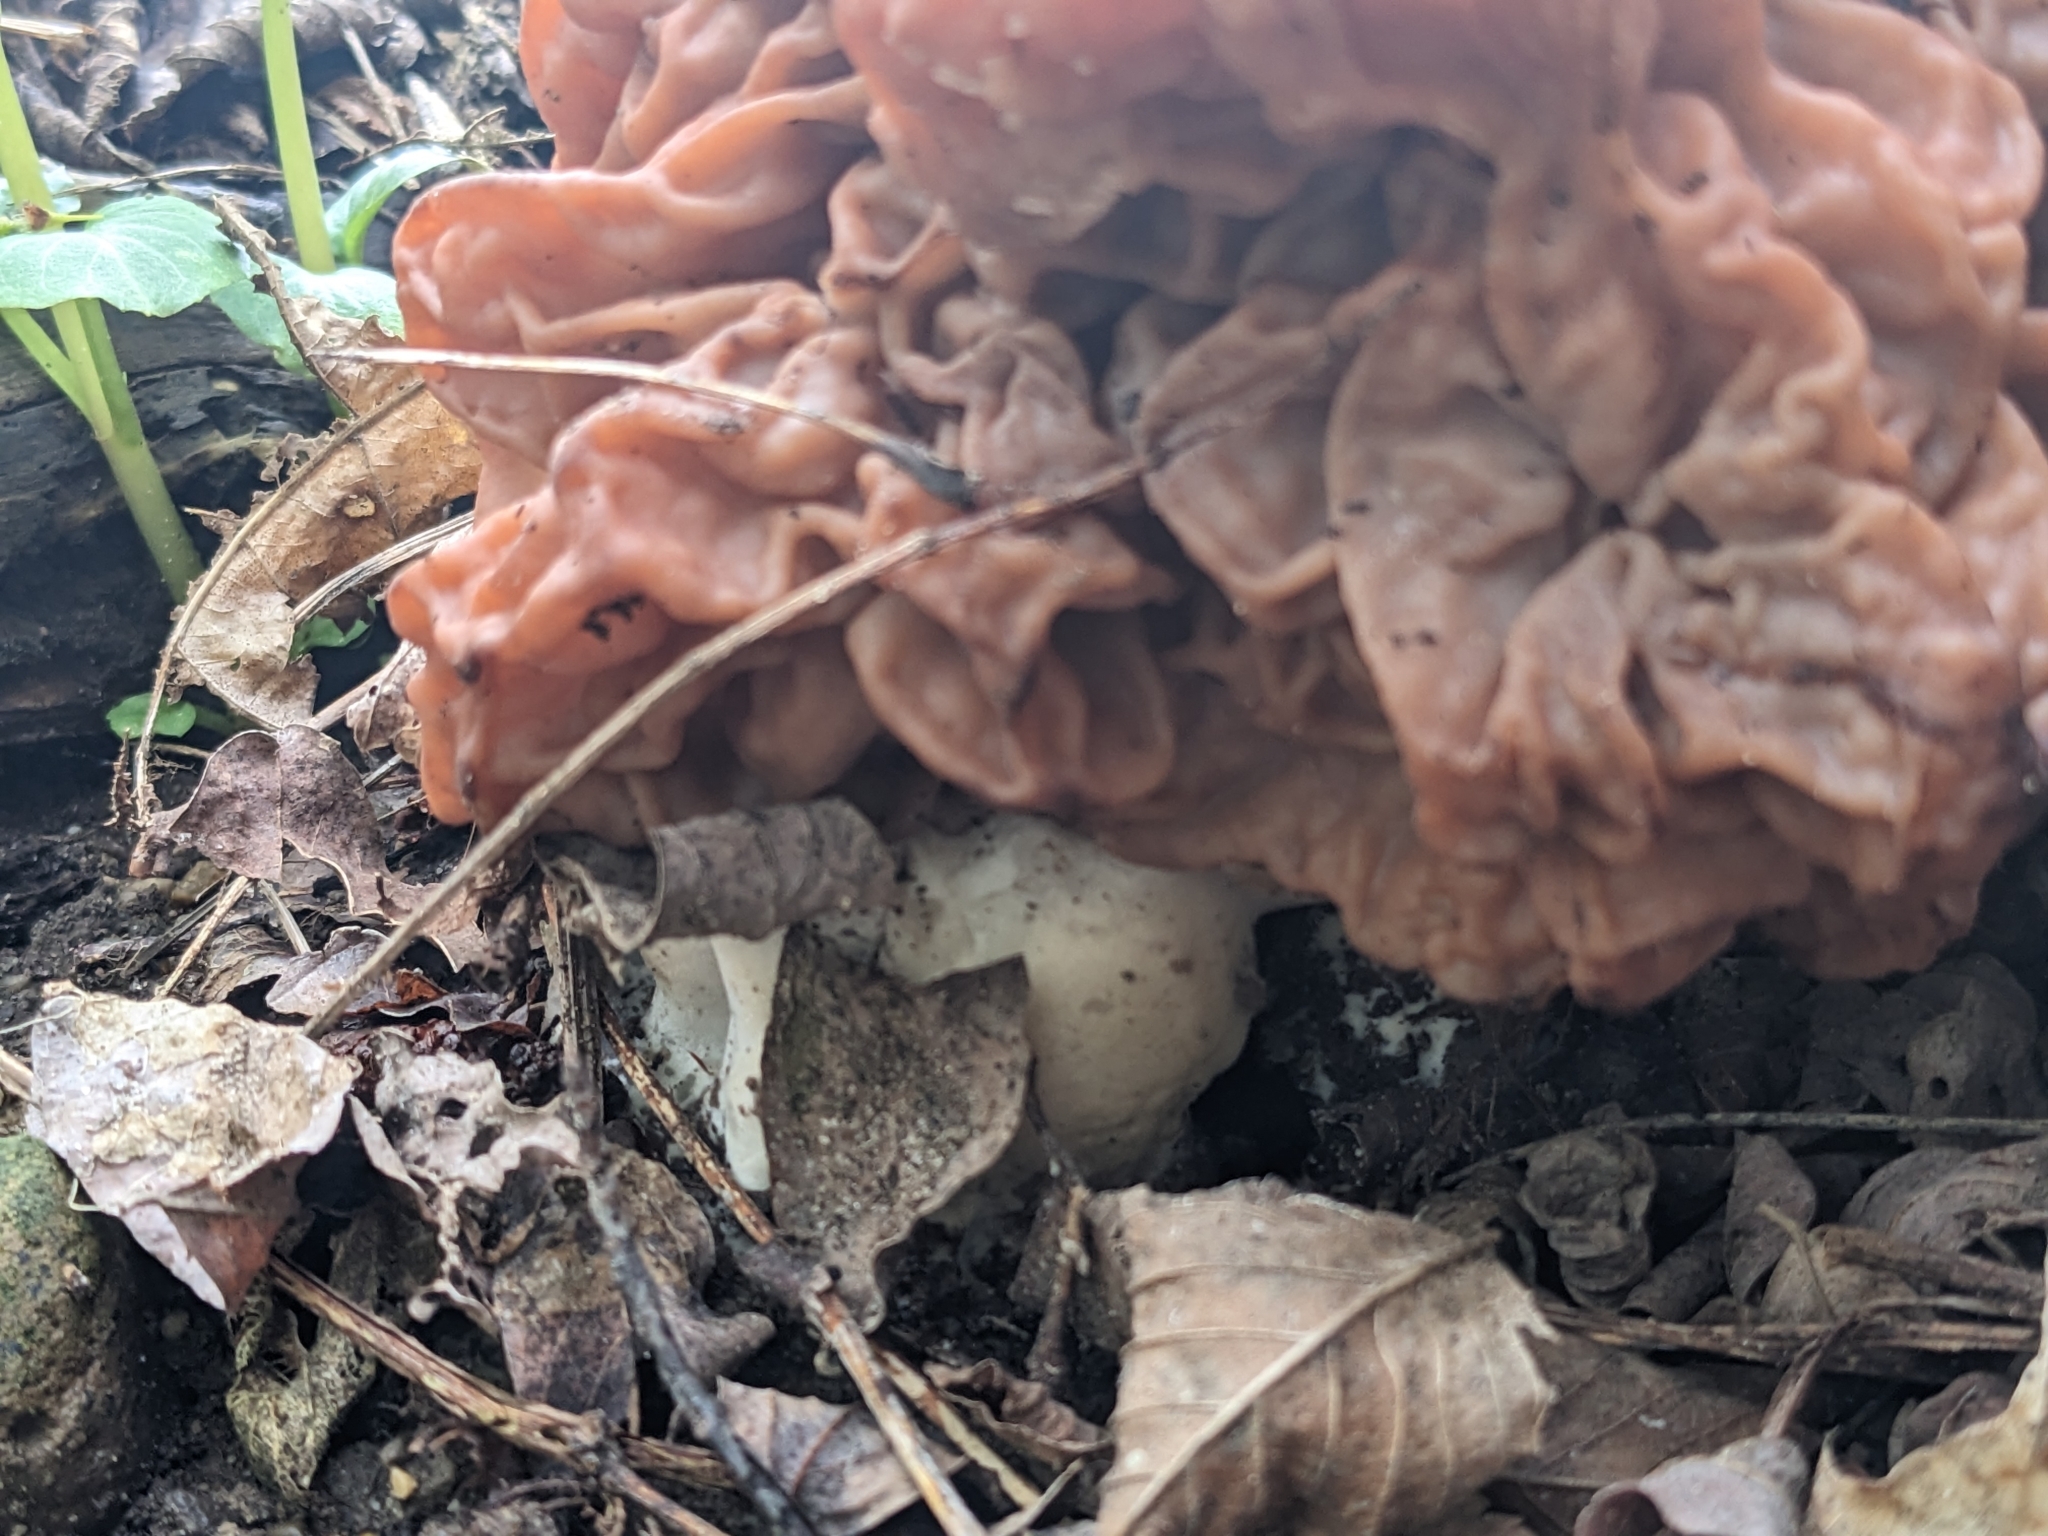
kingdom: Fungi
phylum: Ascomycota
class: Pezizomycetes
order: Pezizales
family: Discinaceae
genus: Discina
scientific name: Discina caroliniana
